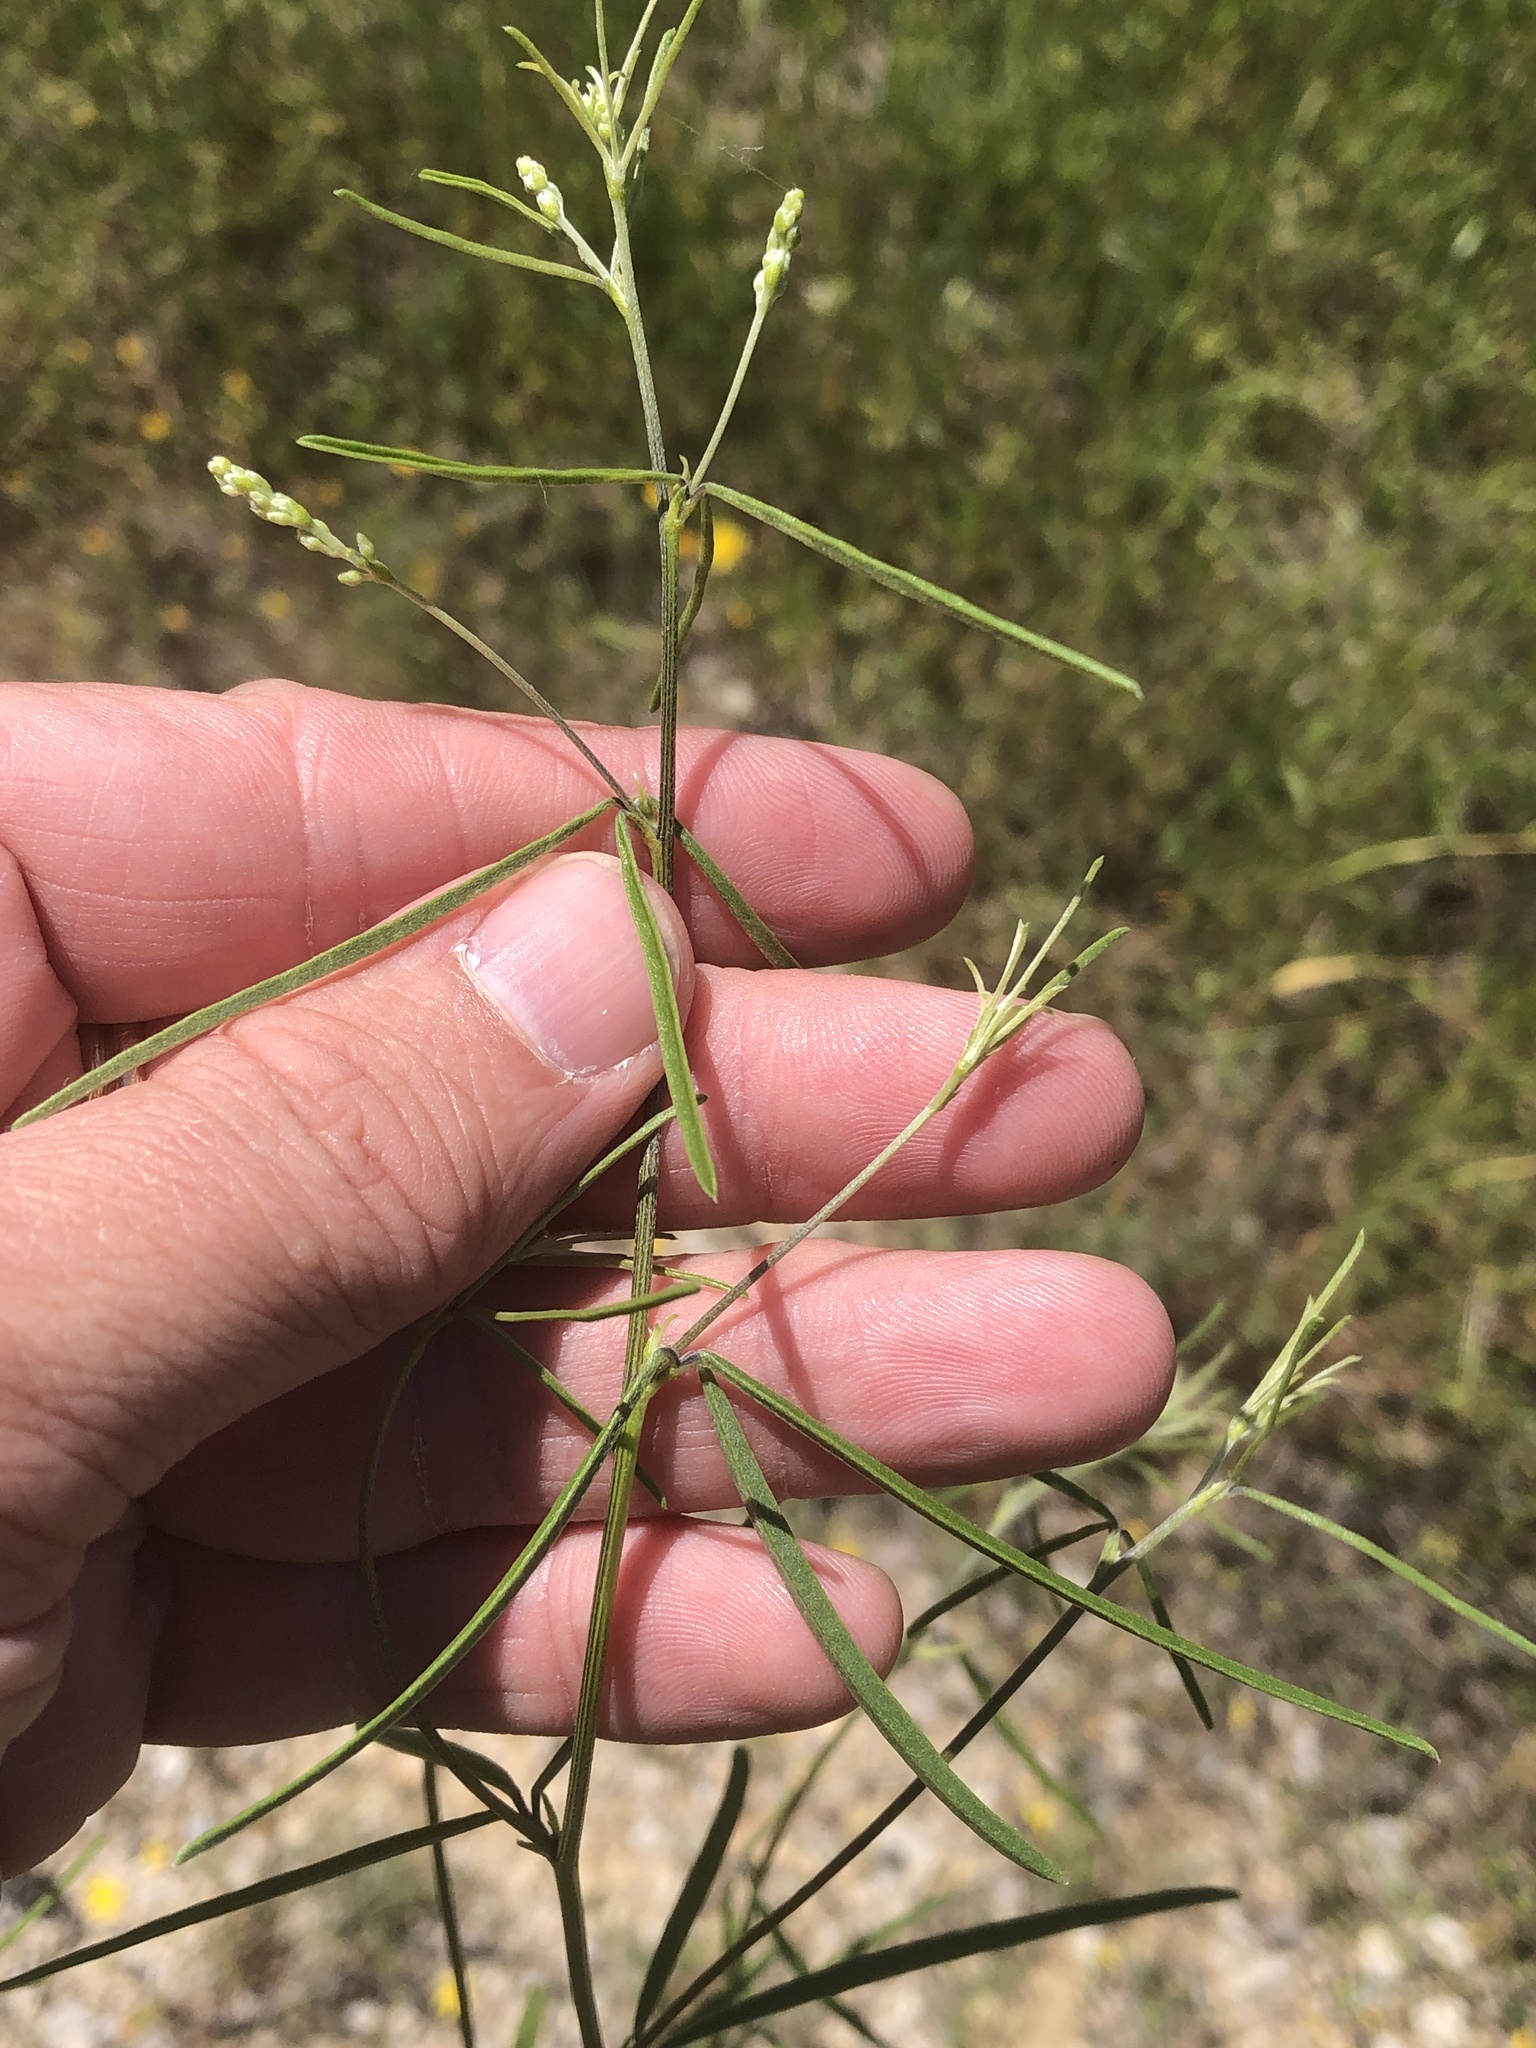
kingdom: Plantae
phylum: Tracheophyta
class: Magnoliopsida
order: Fabales
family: Fabaceae
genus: Pediomelum
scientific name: Pediomelum linearifolium
